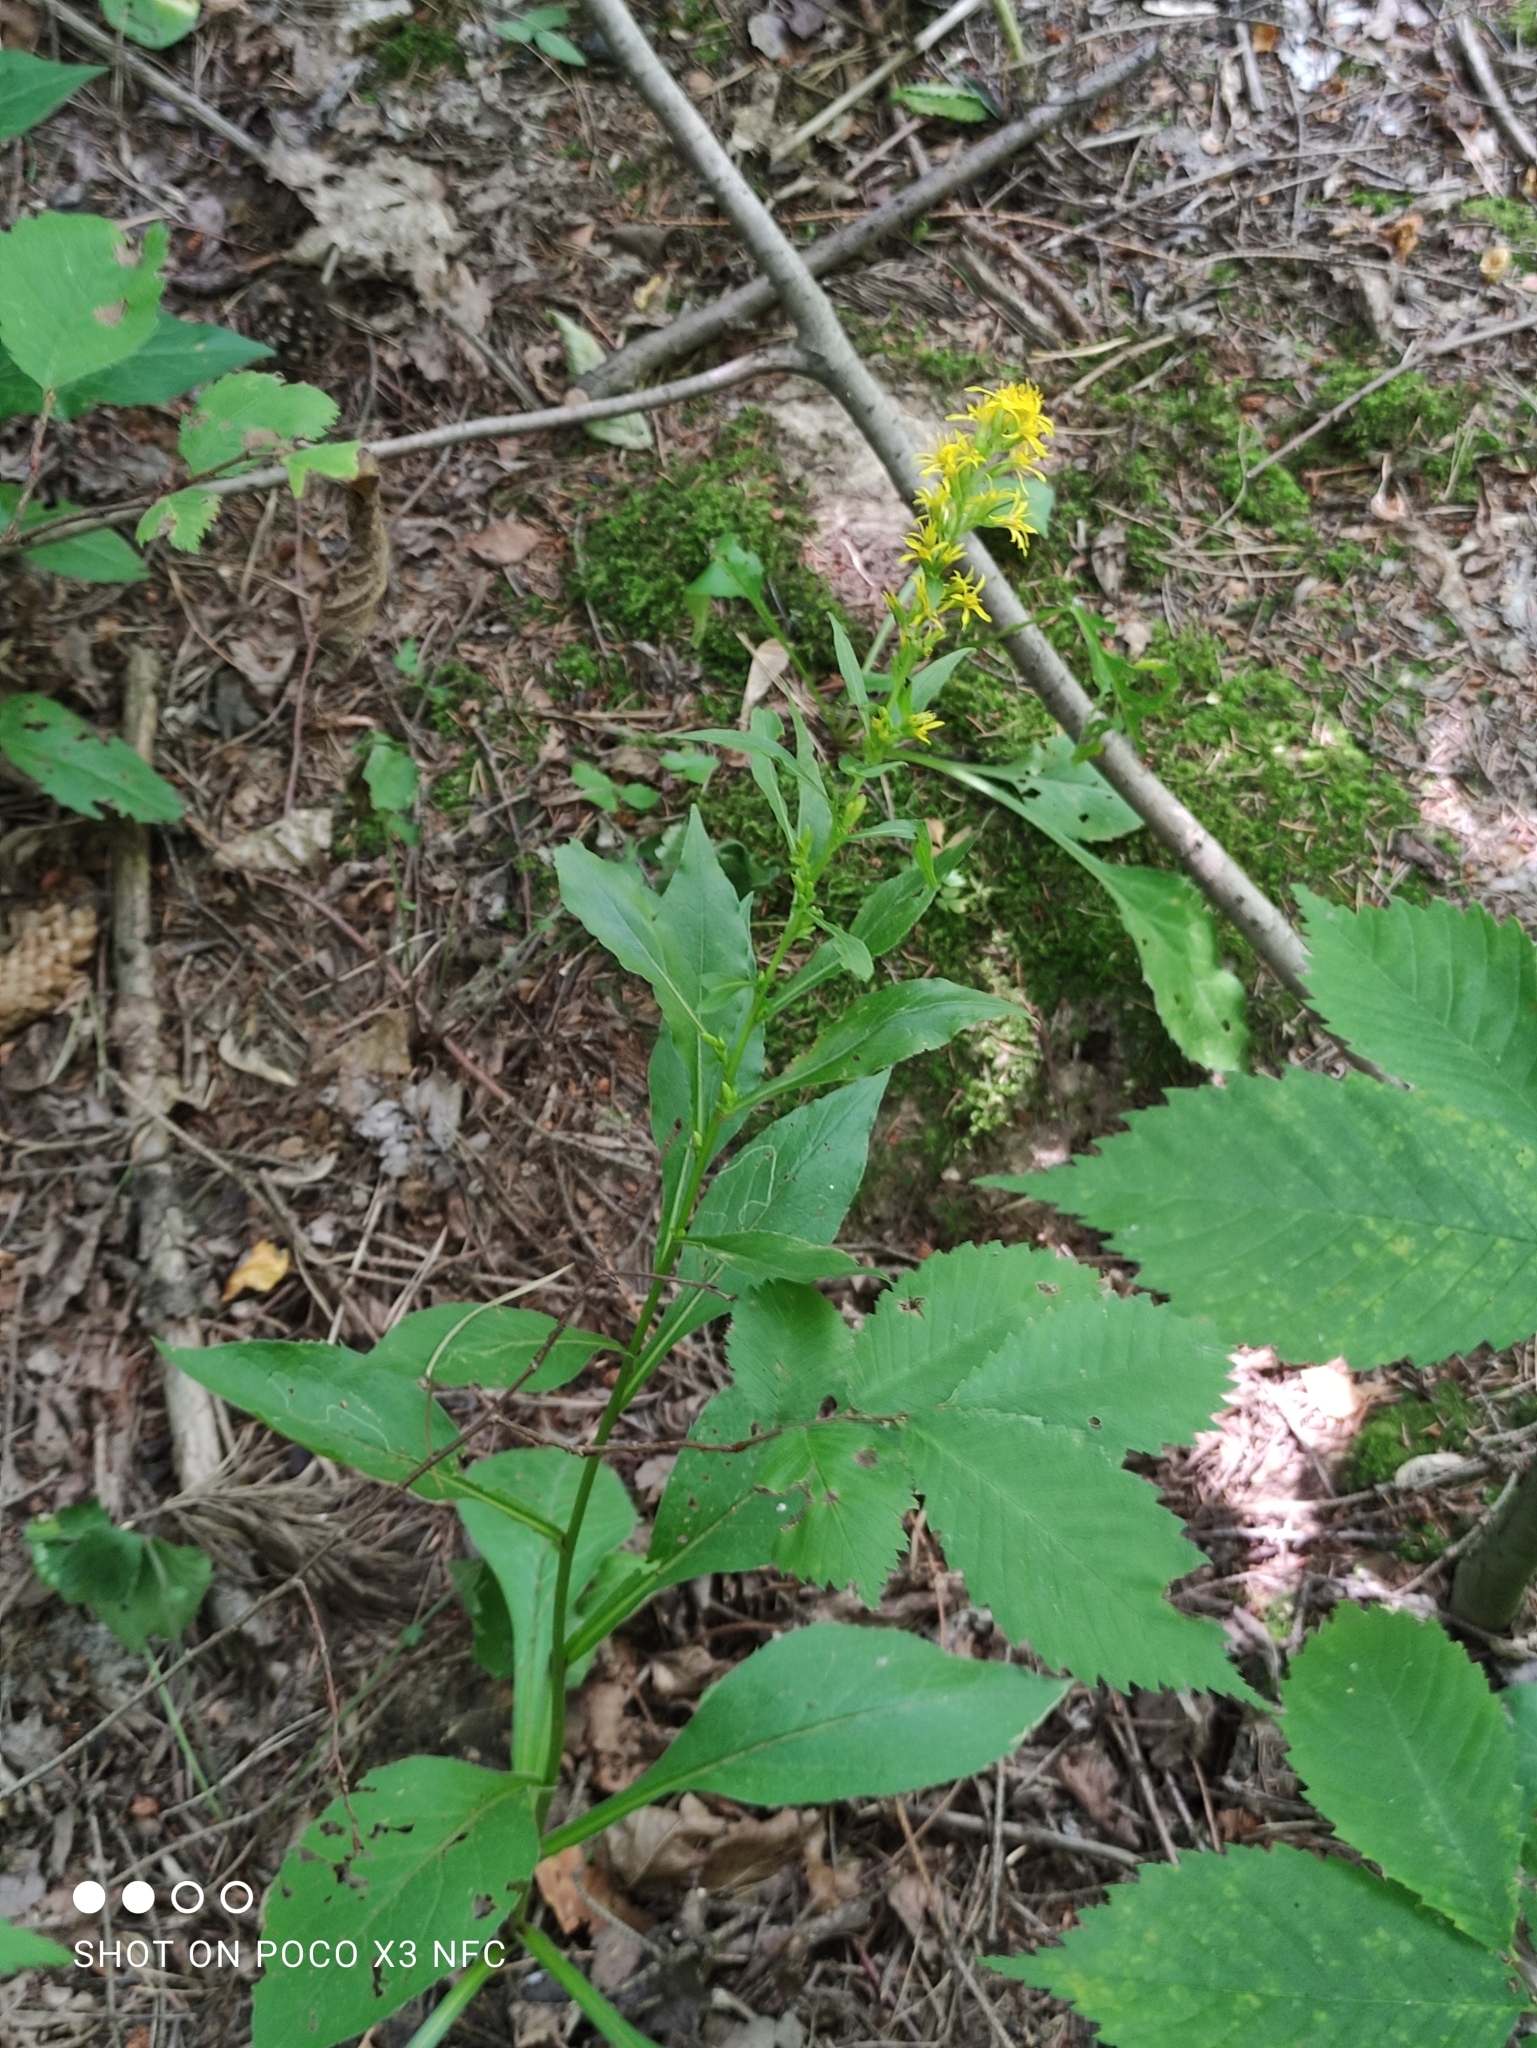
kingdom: Plantae
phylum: Tracheophyta
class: Magnoliopsida
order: Asterales
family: Asteraceae
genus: Solidago
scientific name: Solidago virgaurea
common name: Goldenrod
